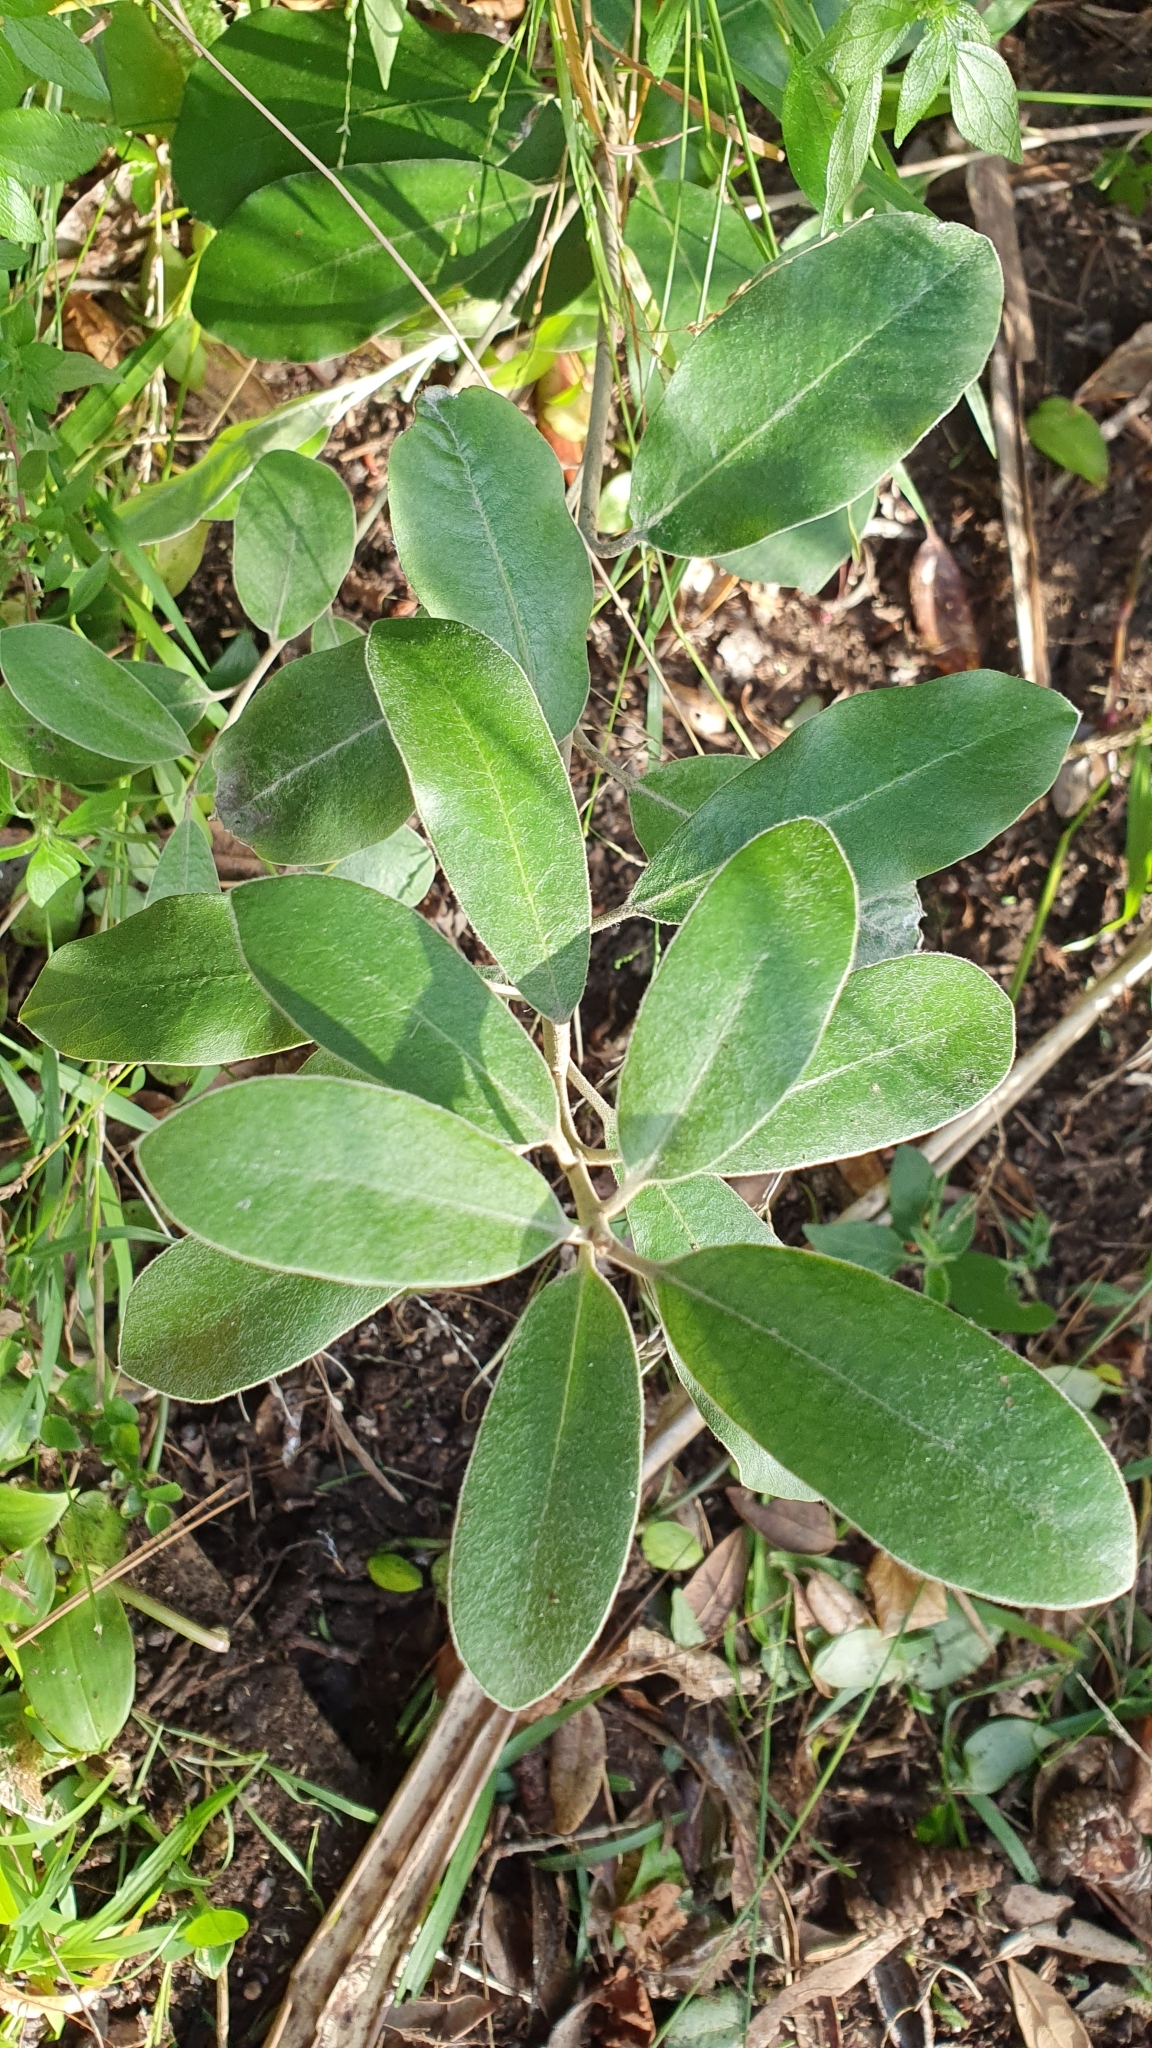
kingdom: Plantae
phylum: Tracheophyta
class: Magnoliopsida
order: Apiales
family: Pittosporaceae
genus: Pittosporum
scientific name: Pittosporum ralphii
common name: Ralph's desertwillow
